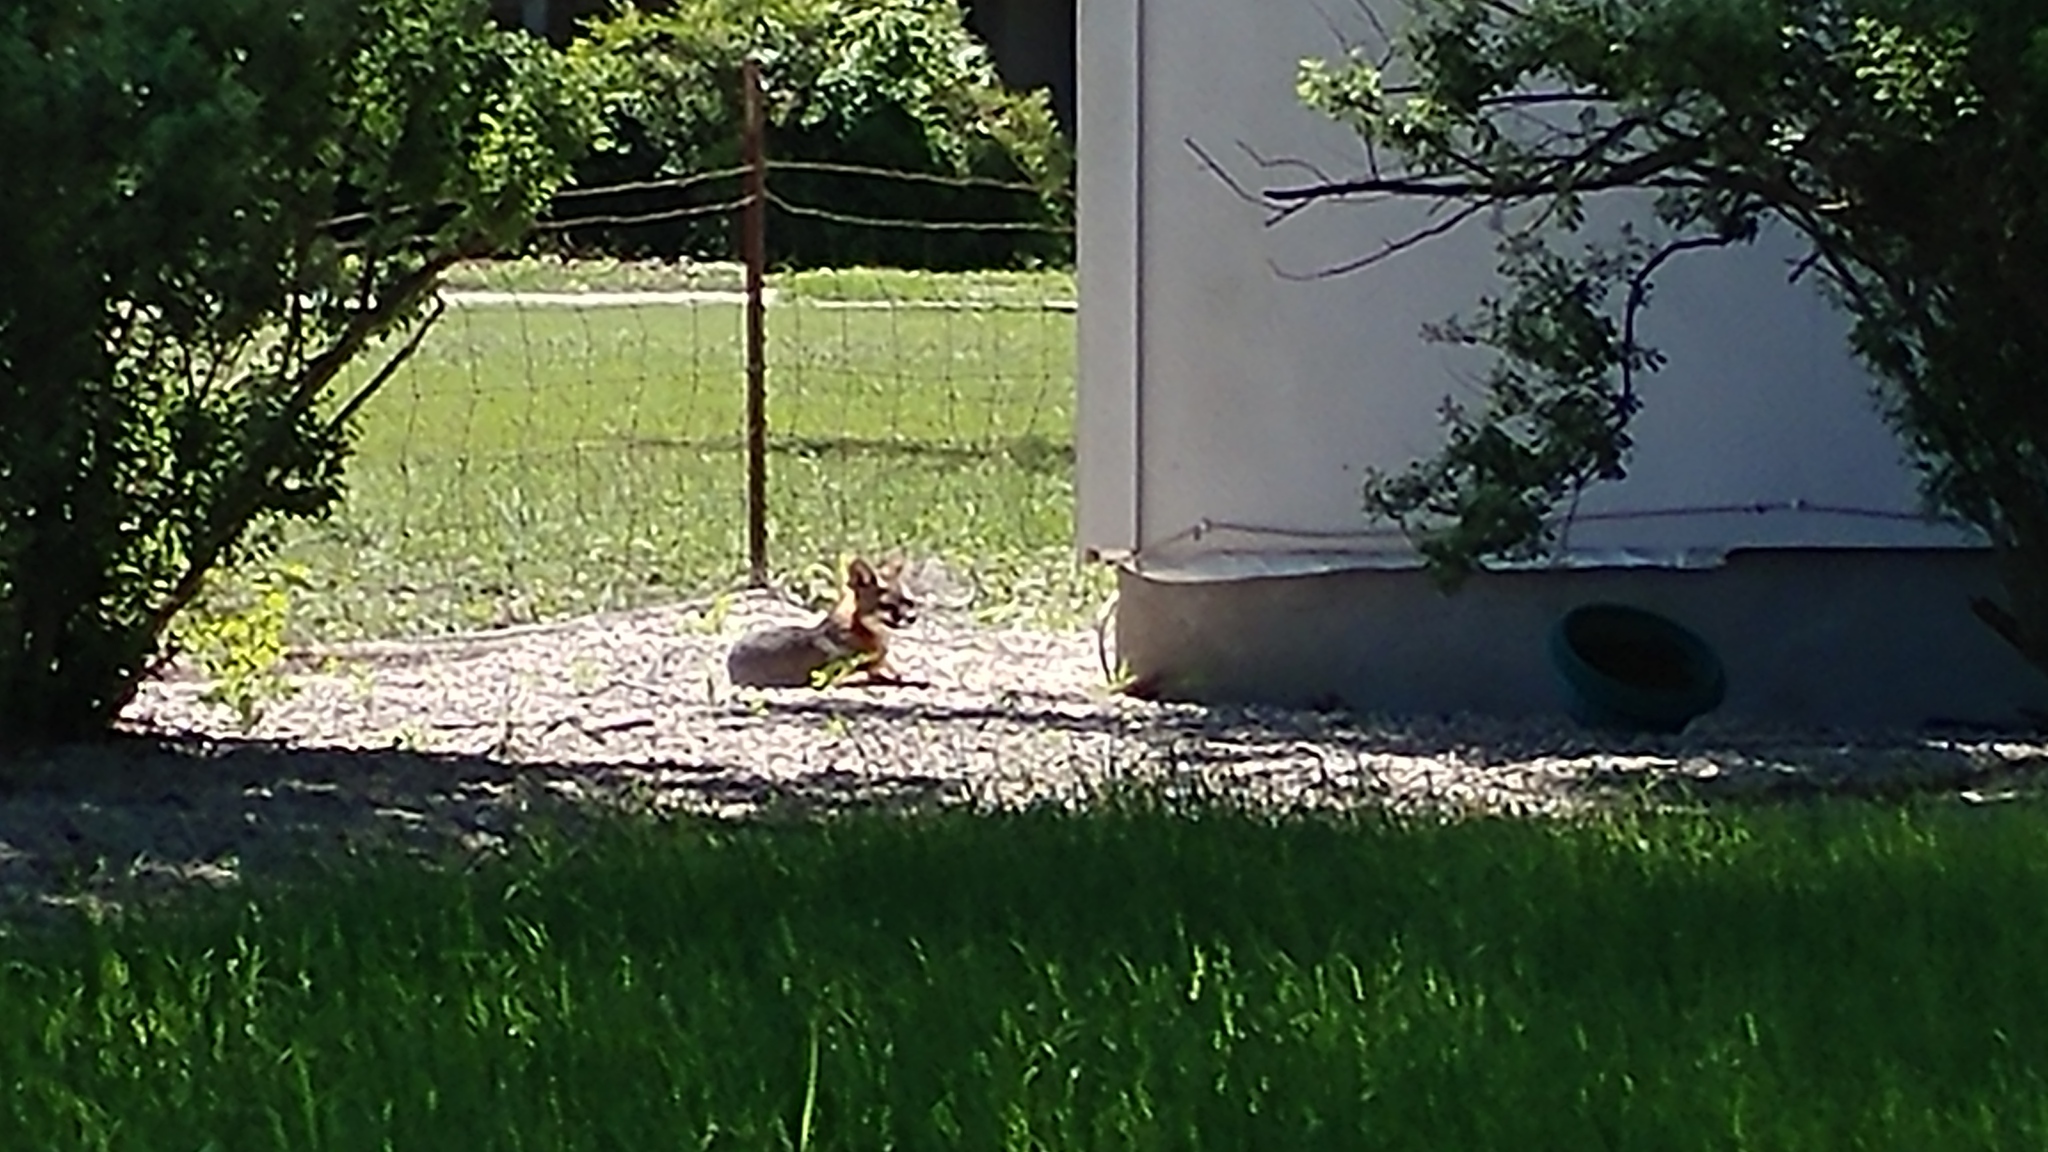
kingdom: Animalia
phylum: Chordata
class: Mammalia
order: Carnivora
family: Canidae
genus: Urocyon
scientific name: Urocyon cinereoargenteus
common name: Gray fox
